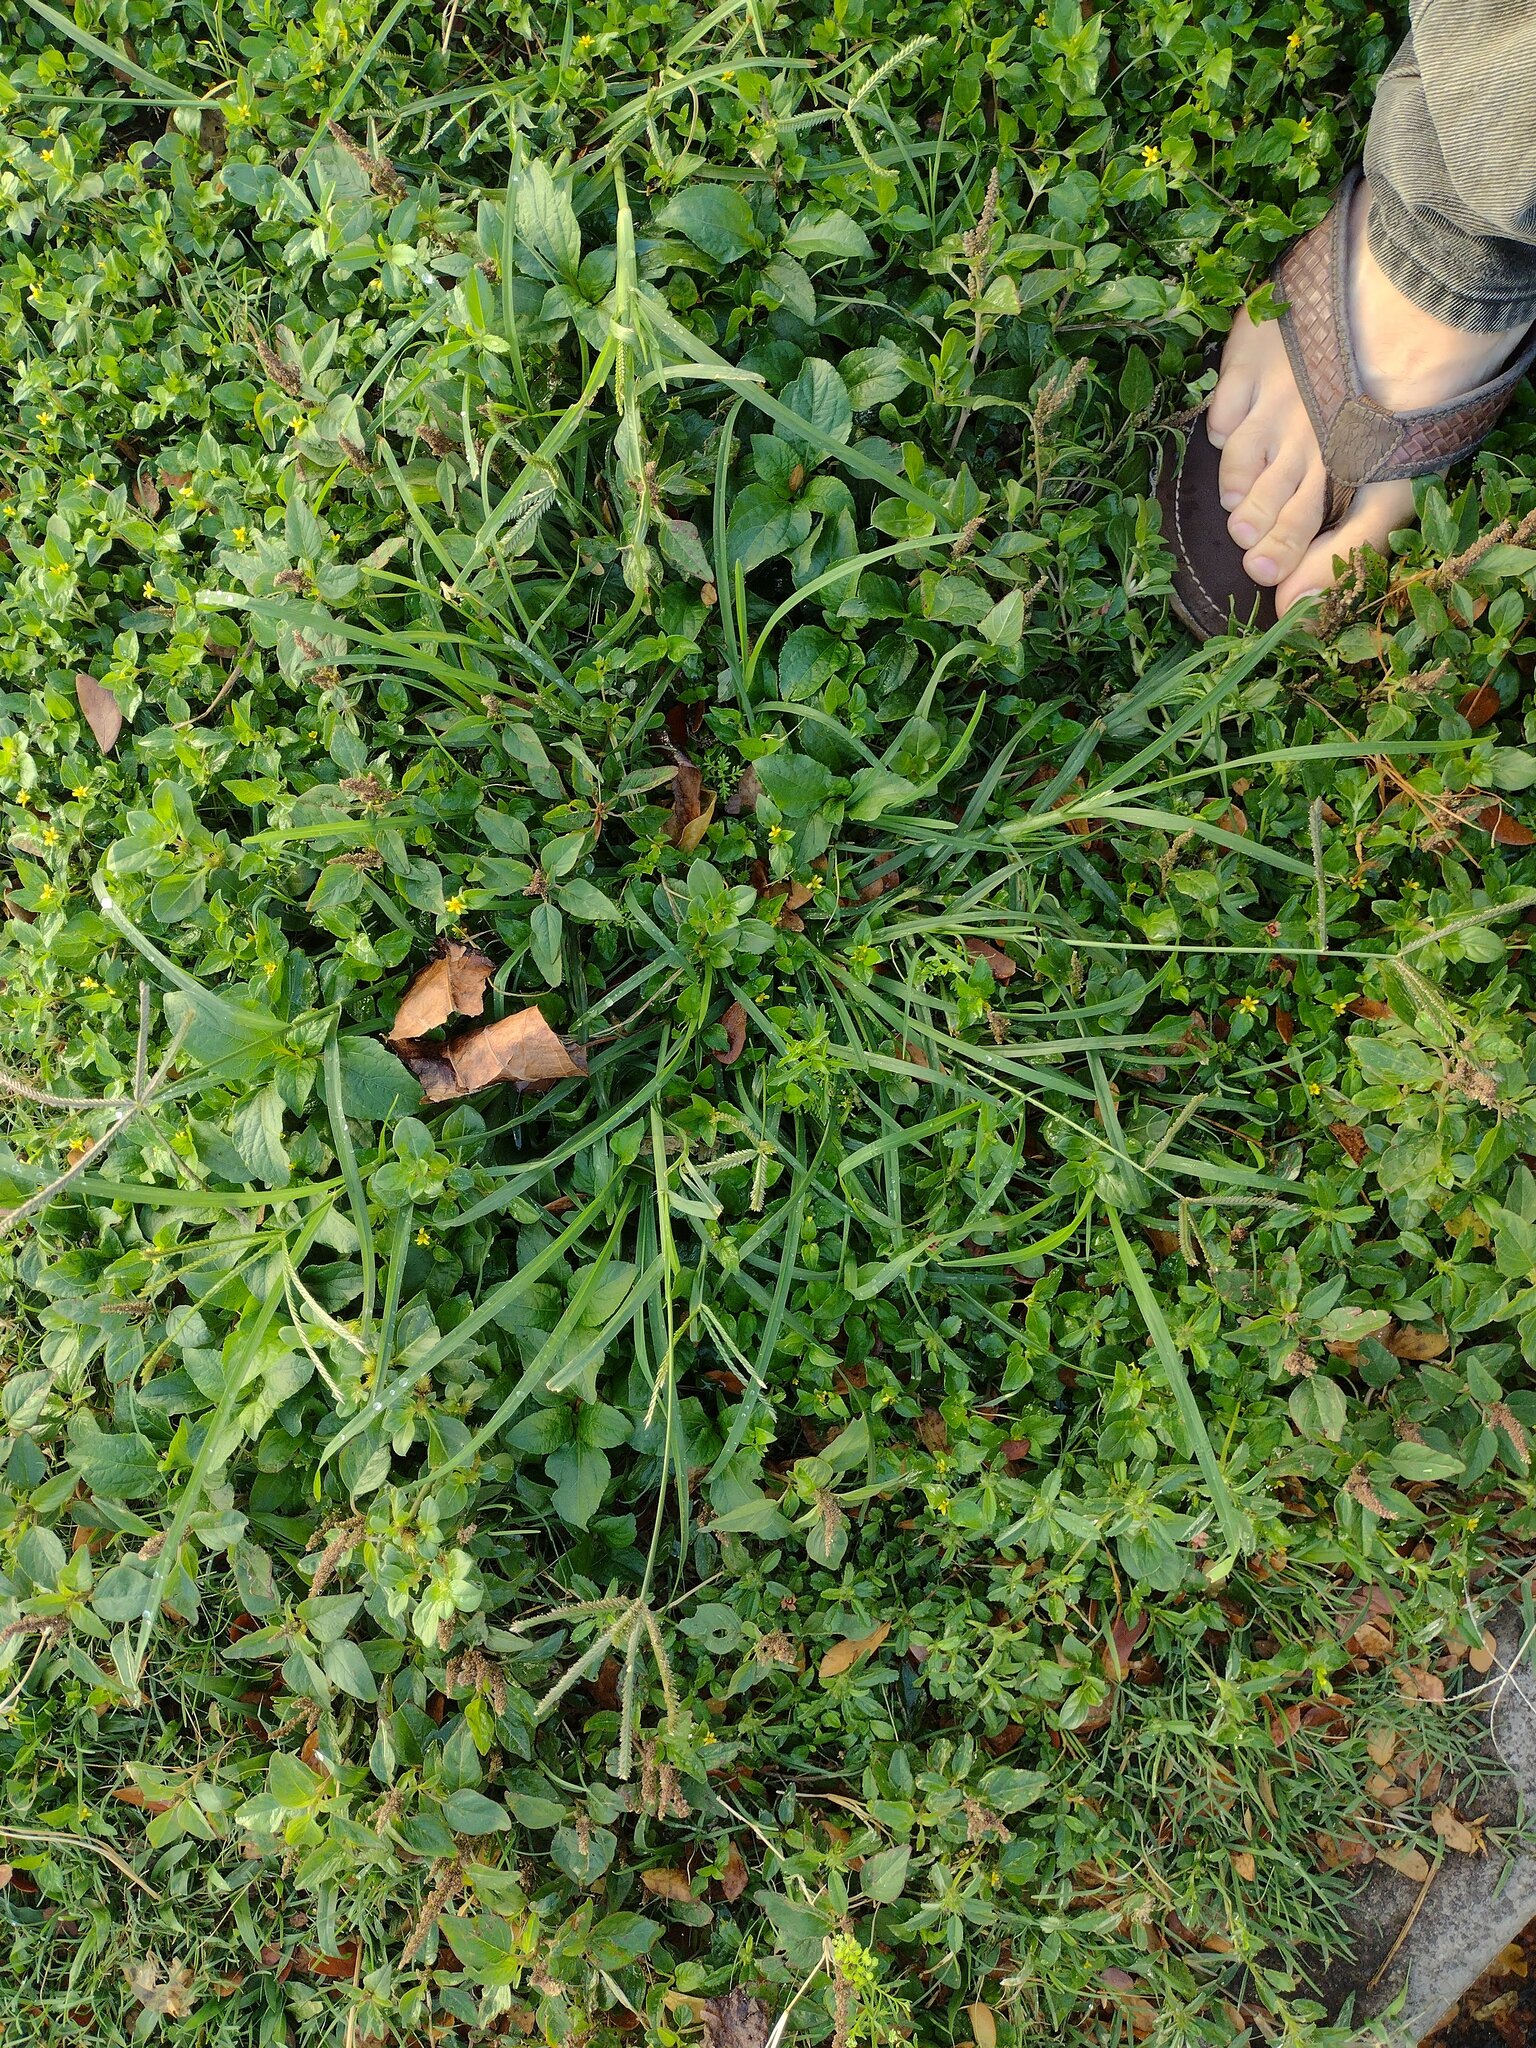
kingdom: Plantae
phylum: Tracheophyta
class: Liliopsida
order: Poales
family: Poaceae
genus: Eleusine
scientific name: Eleusine indica
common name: Yard-grass
